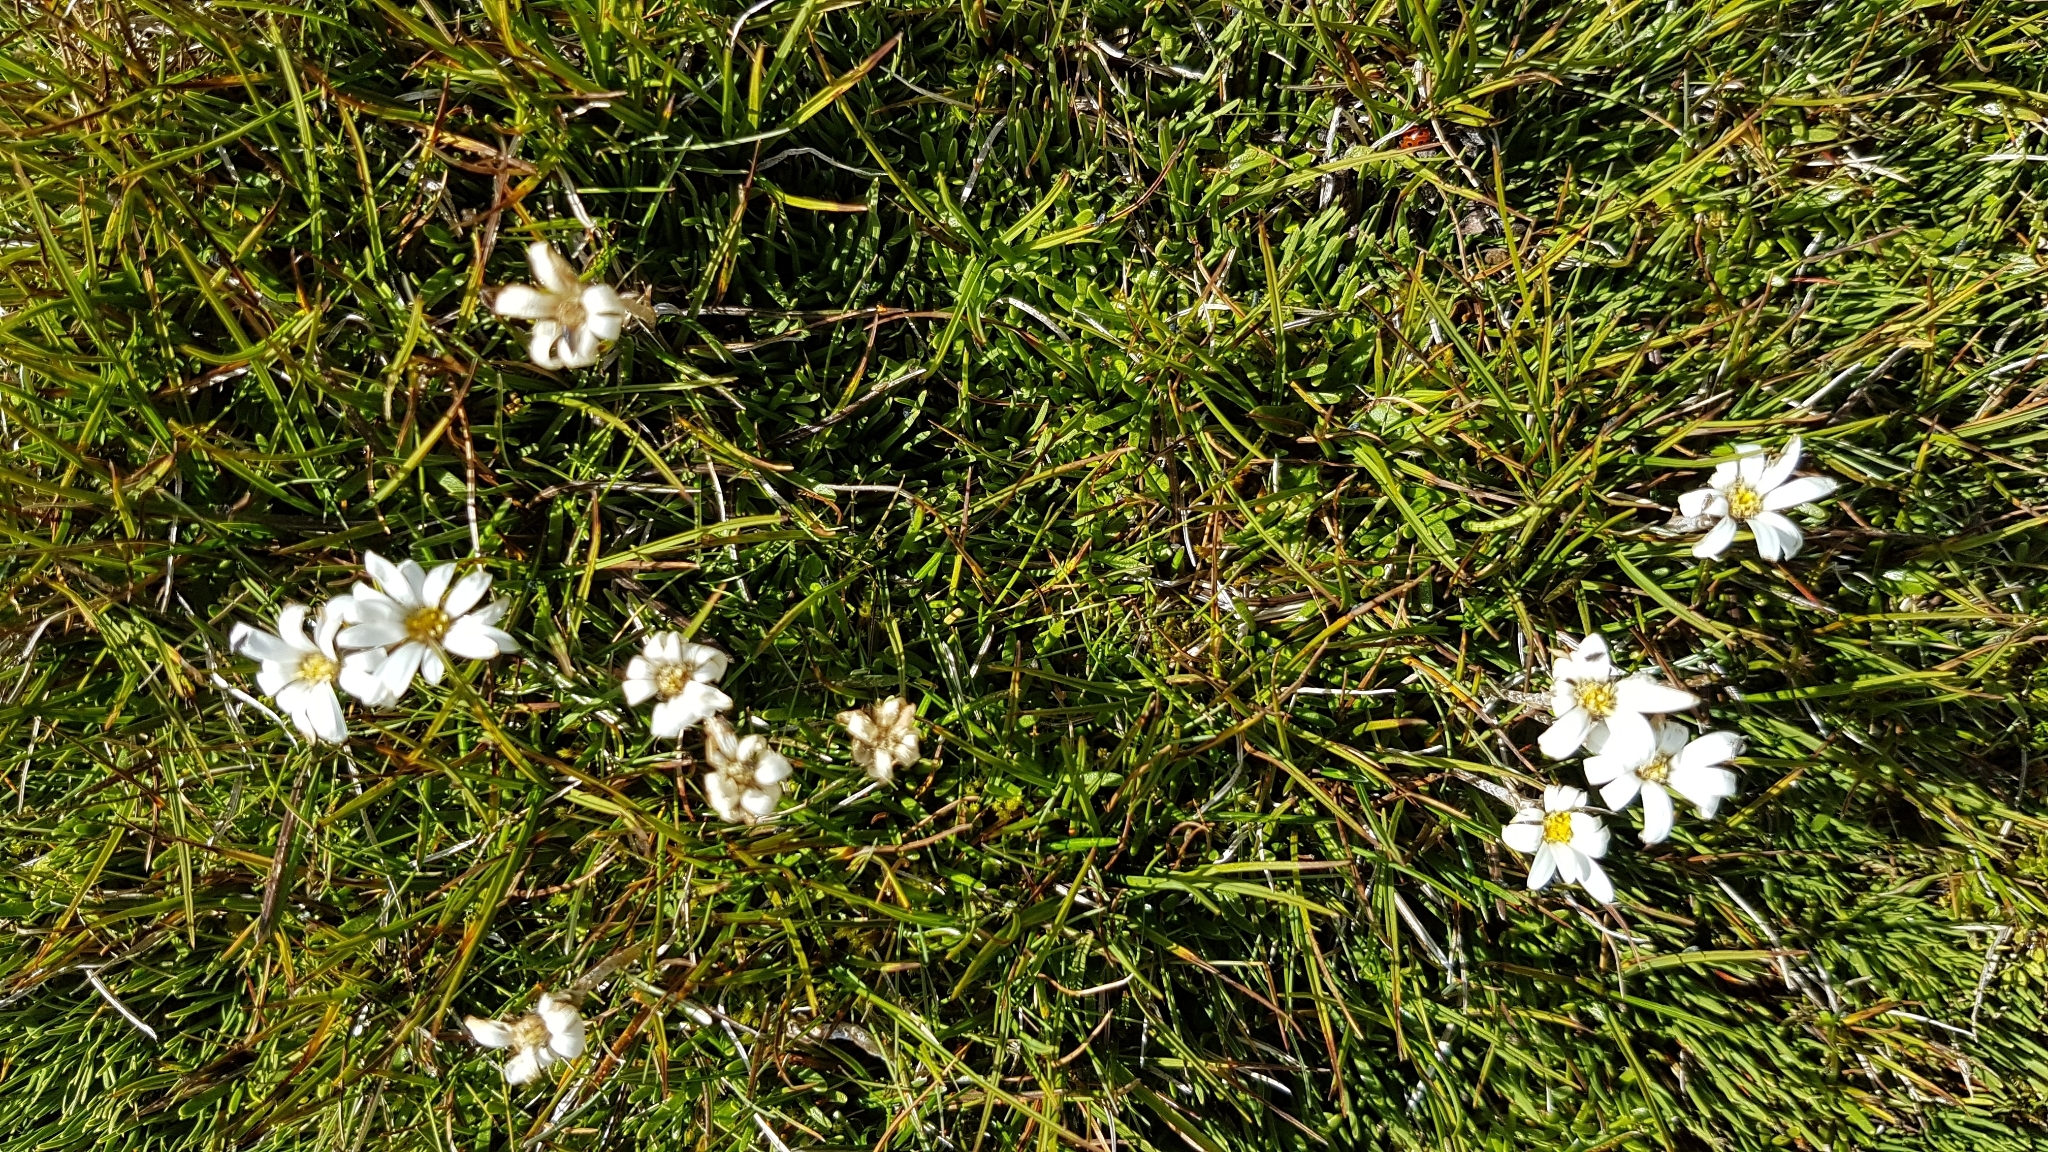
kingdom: Plantae
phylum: Tracheophyta
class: Magnoliopsida
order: Asterales
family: Asteraceae
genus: Celmisia
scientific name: Celmisia alpina
